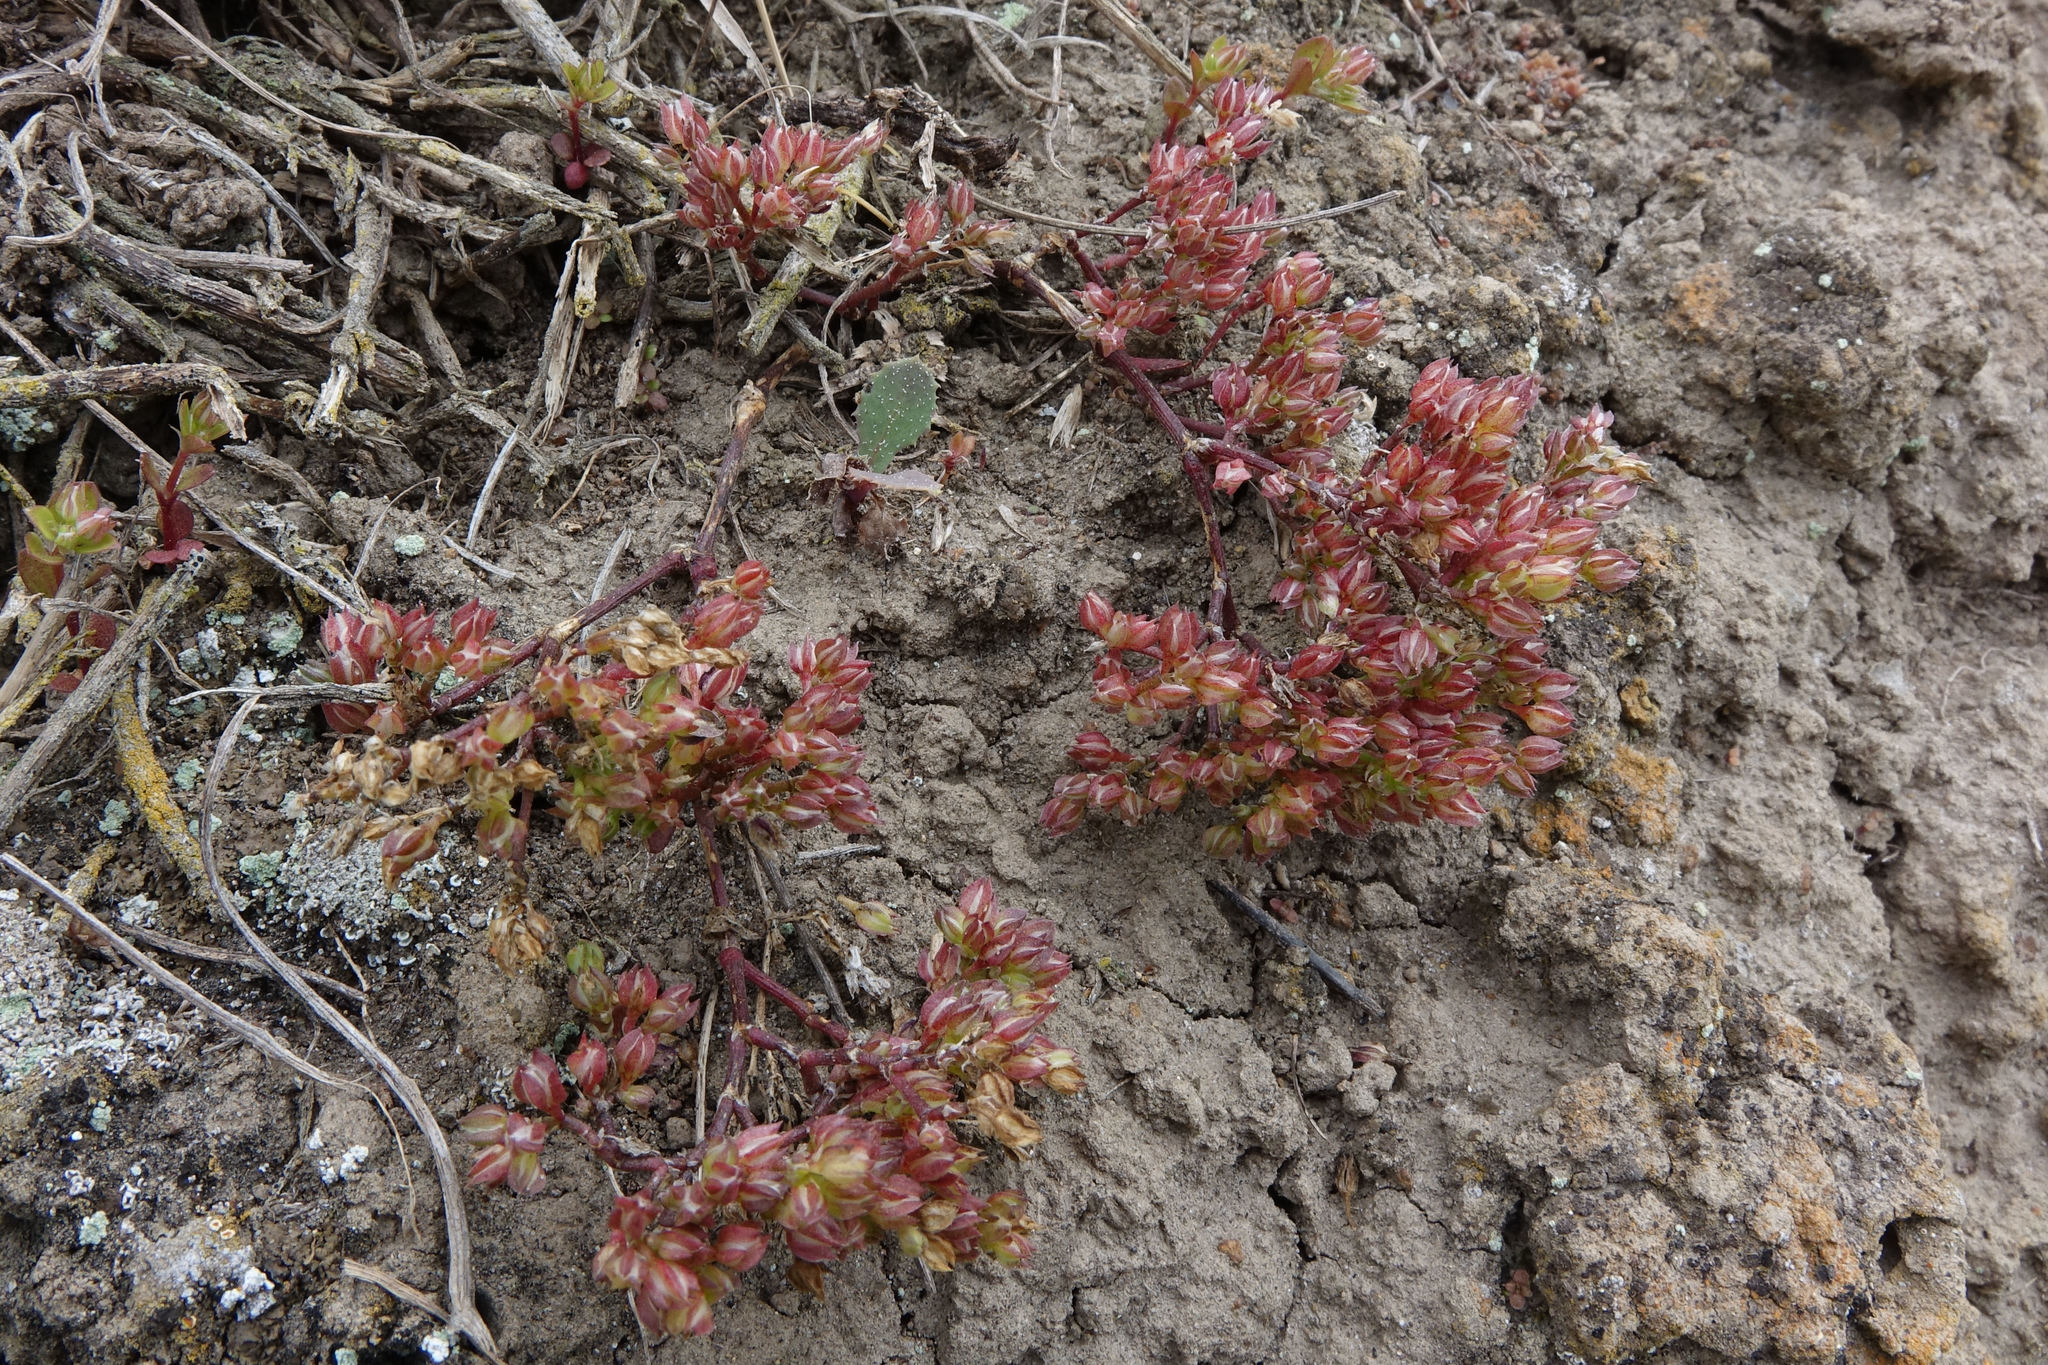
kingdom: Plantae
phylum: Tracheophyta
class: Magnoliopsida
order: Caryophyllales
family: Caryophyllaceae
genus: Polycarpon
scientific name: Polycarpon tetraphyllum
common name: Four-leaved all-seed
